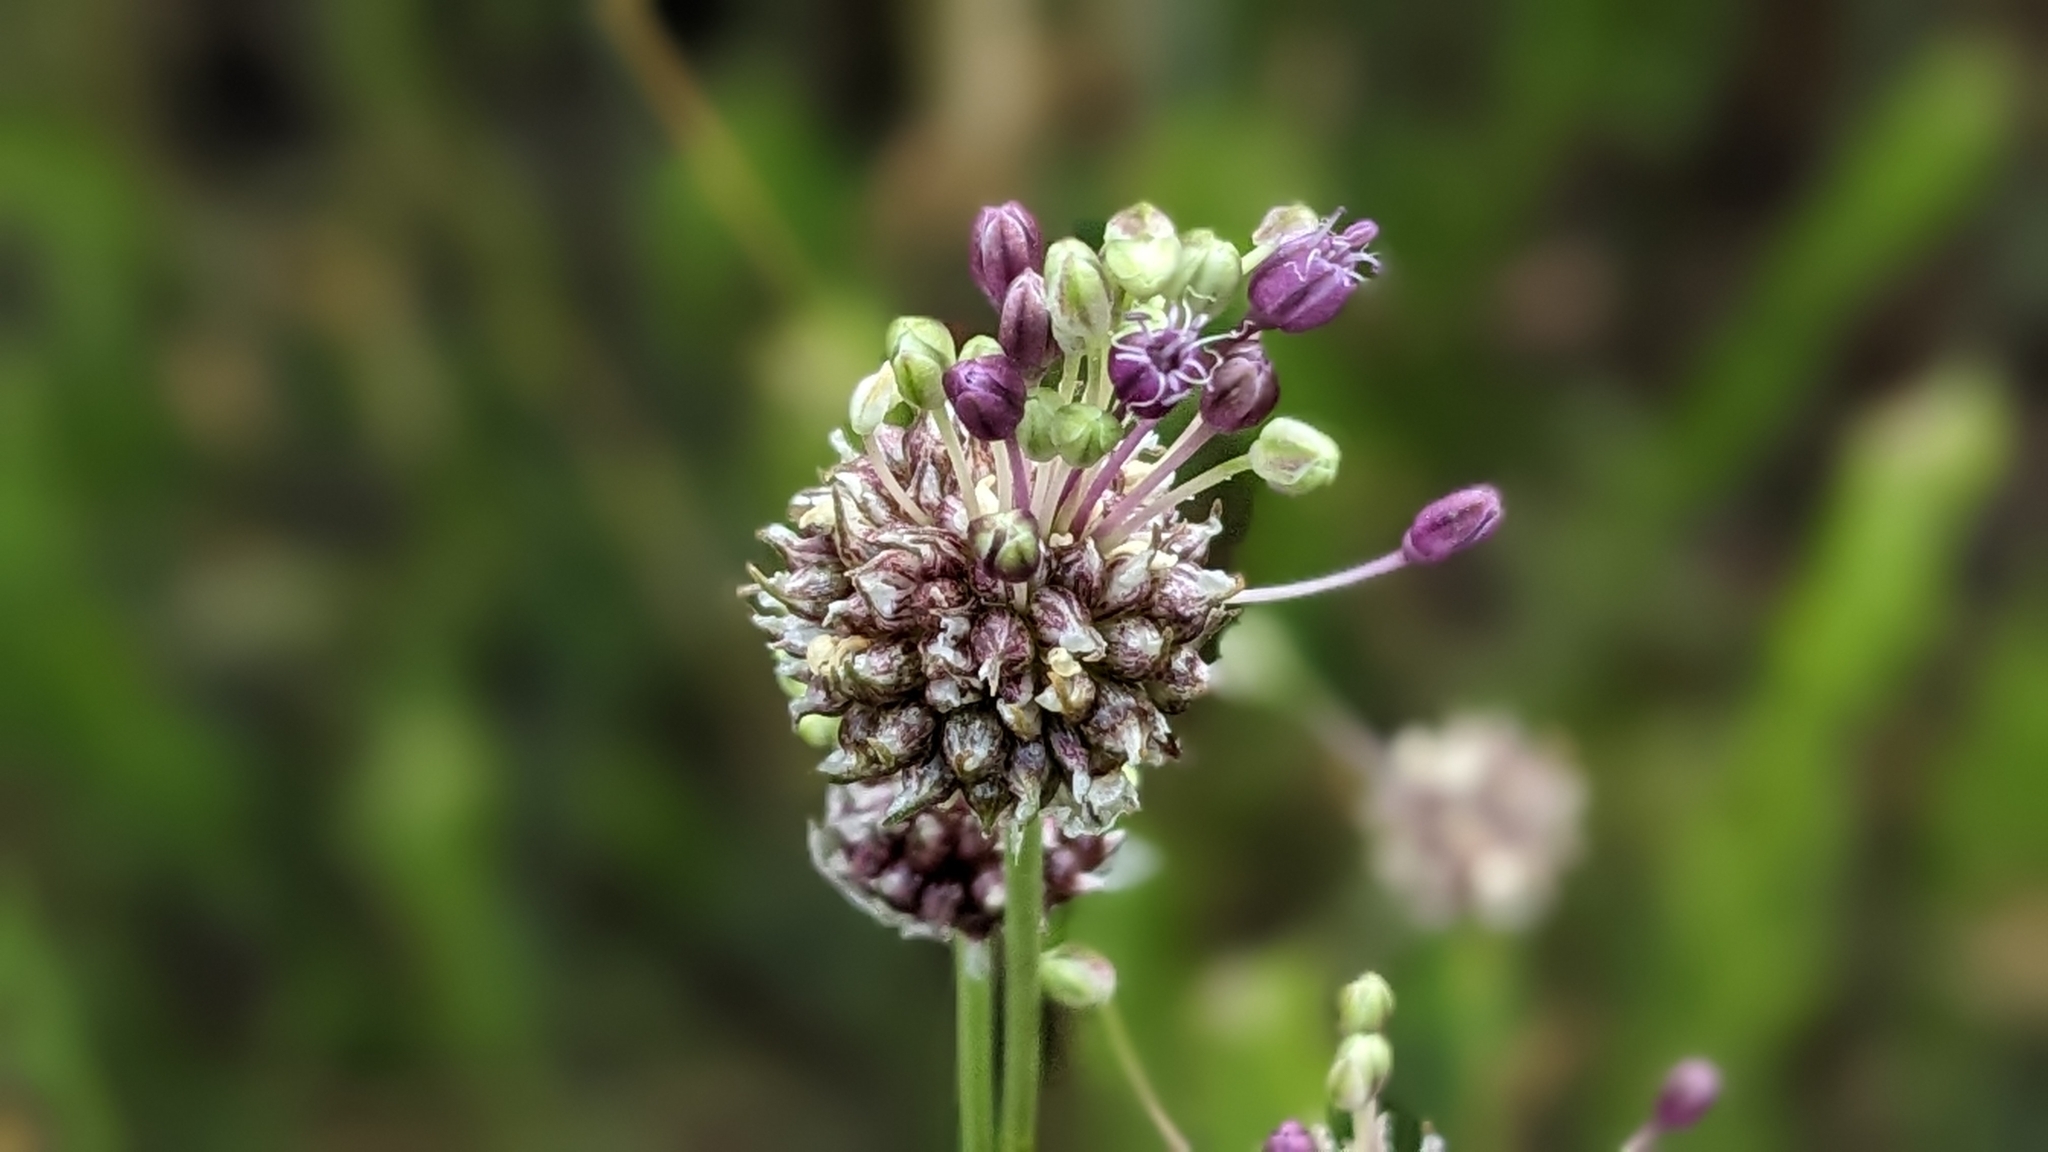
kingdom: Plantae
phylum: Tracheophyta
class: Liliopsida
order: Asparagales
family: Amaryllidaceae
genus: Allium
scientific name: Allium vineale
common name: Crow garlic
